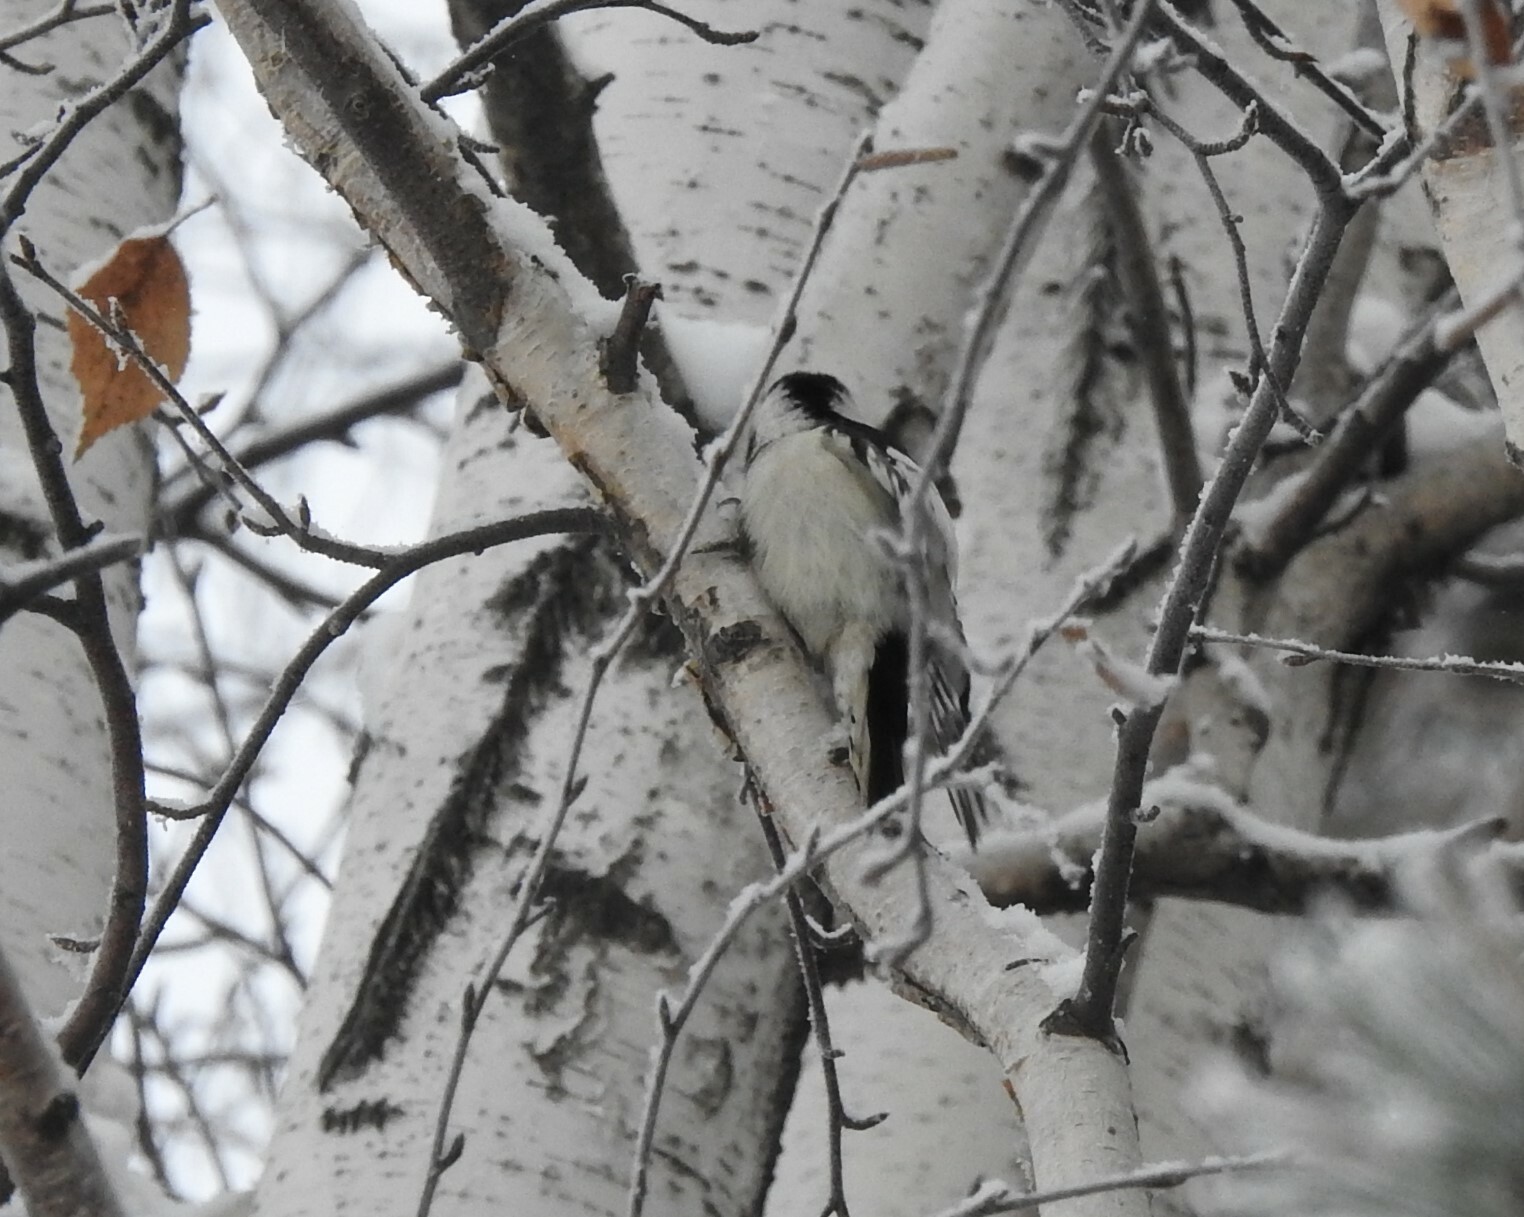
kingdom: Animalia
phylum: Chordata
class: Aves
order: Piciformes
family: Picidae
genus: Dryobates
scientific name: Dryobates minor
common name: Lesser spotted woodpecker
